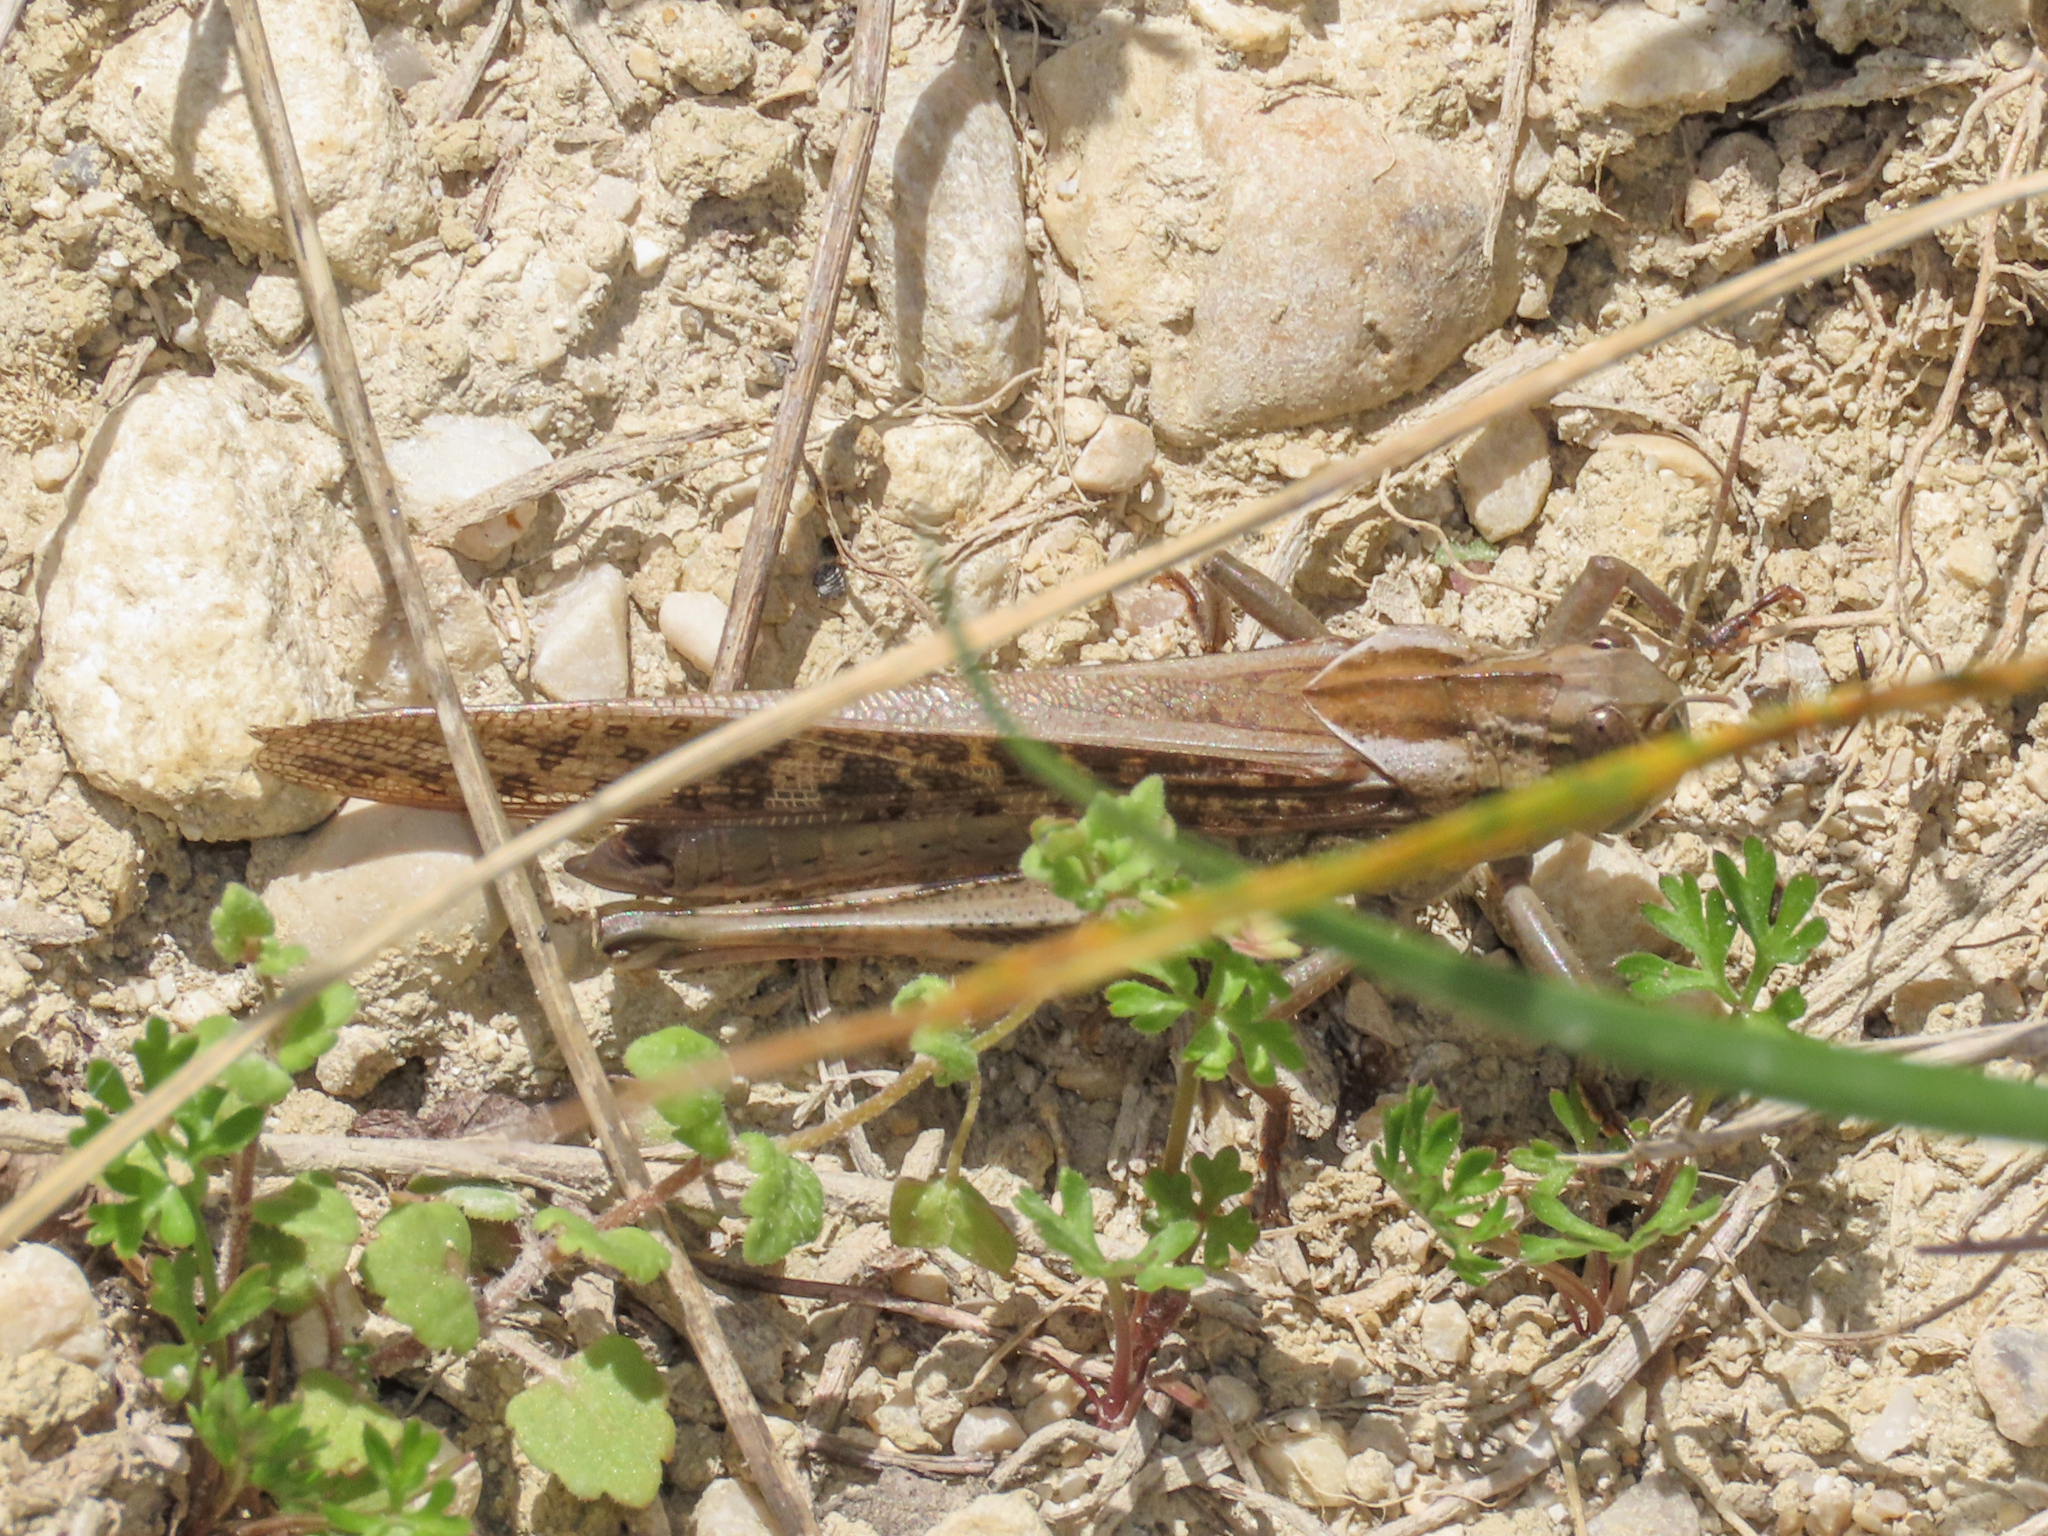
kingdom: Animalia
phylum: Arthropoda
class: Insecta
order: Orthoptera
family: Acrididae
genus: Locusta
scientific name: Locusta migratoria
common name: Migratory locust
